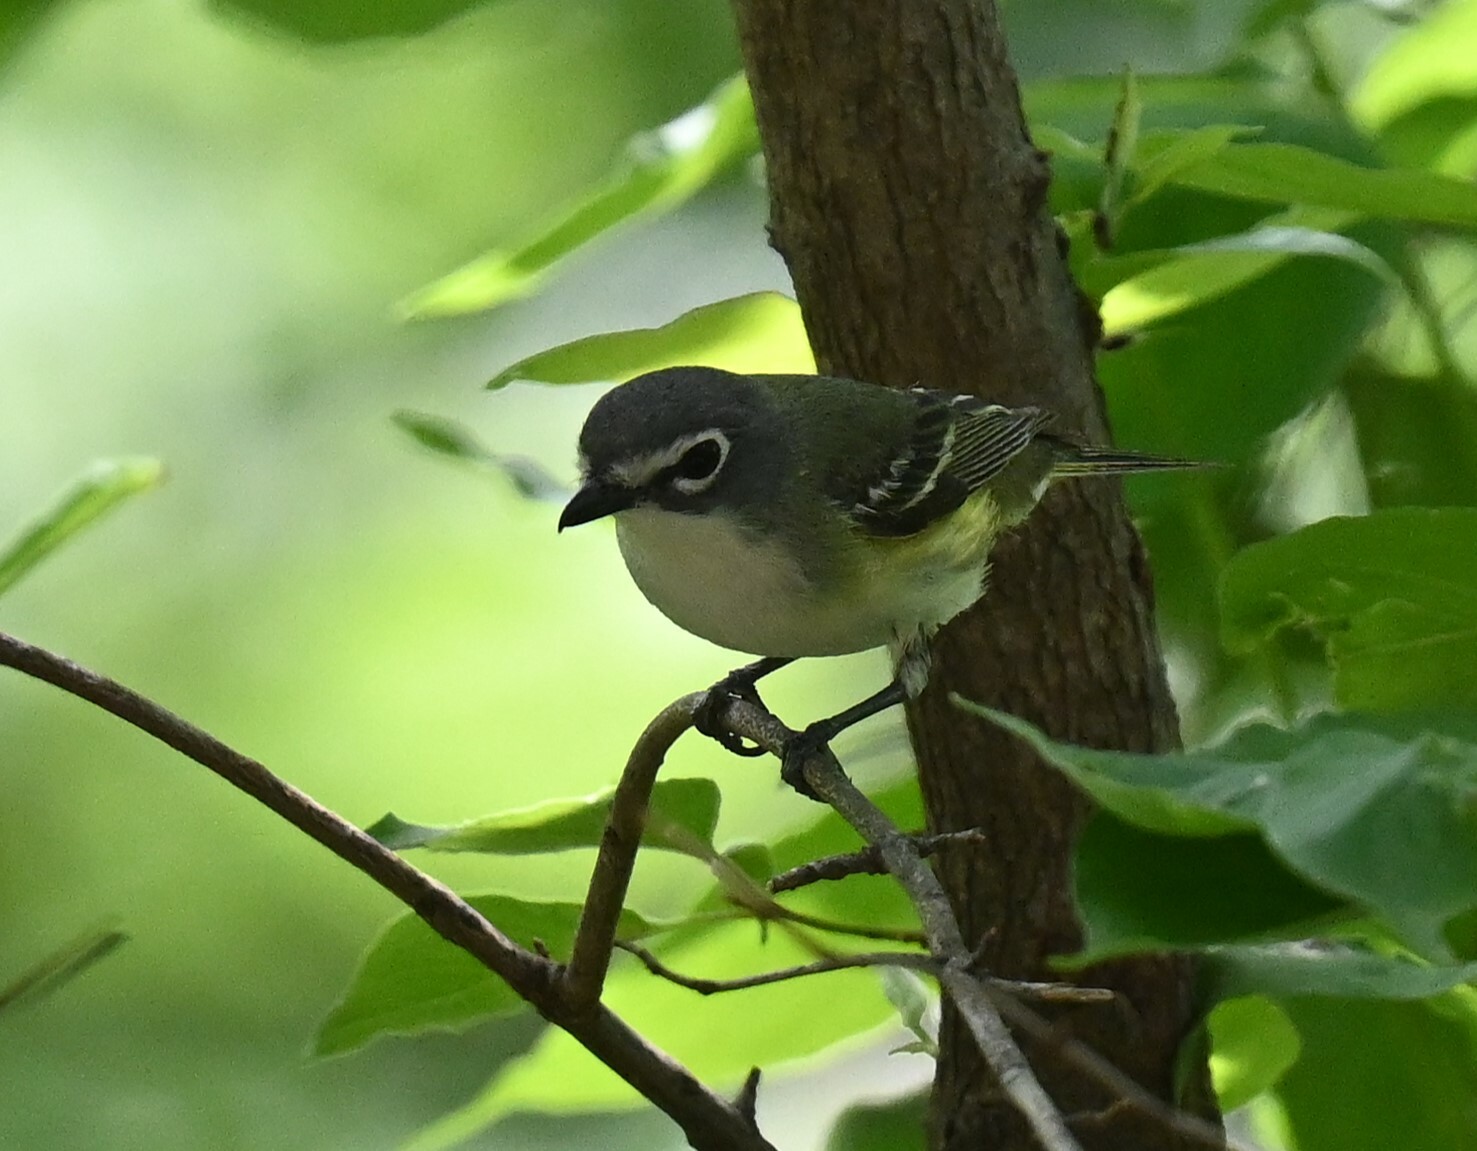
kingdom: Animalia
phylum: Chordata
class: Aves
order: Passeriformes
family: Vireonidae
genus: Vireo
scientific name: Vireo solitarius
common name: Blue-headed vireo
